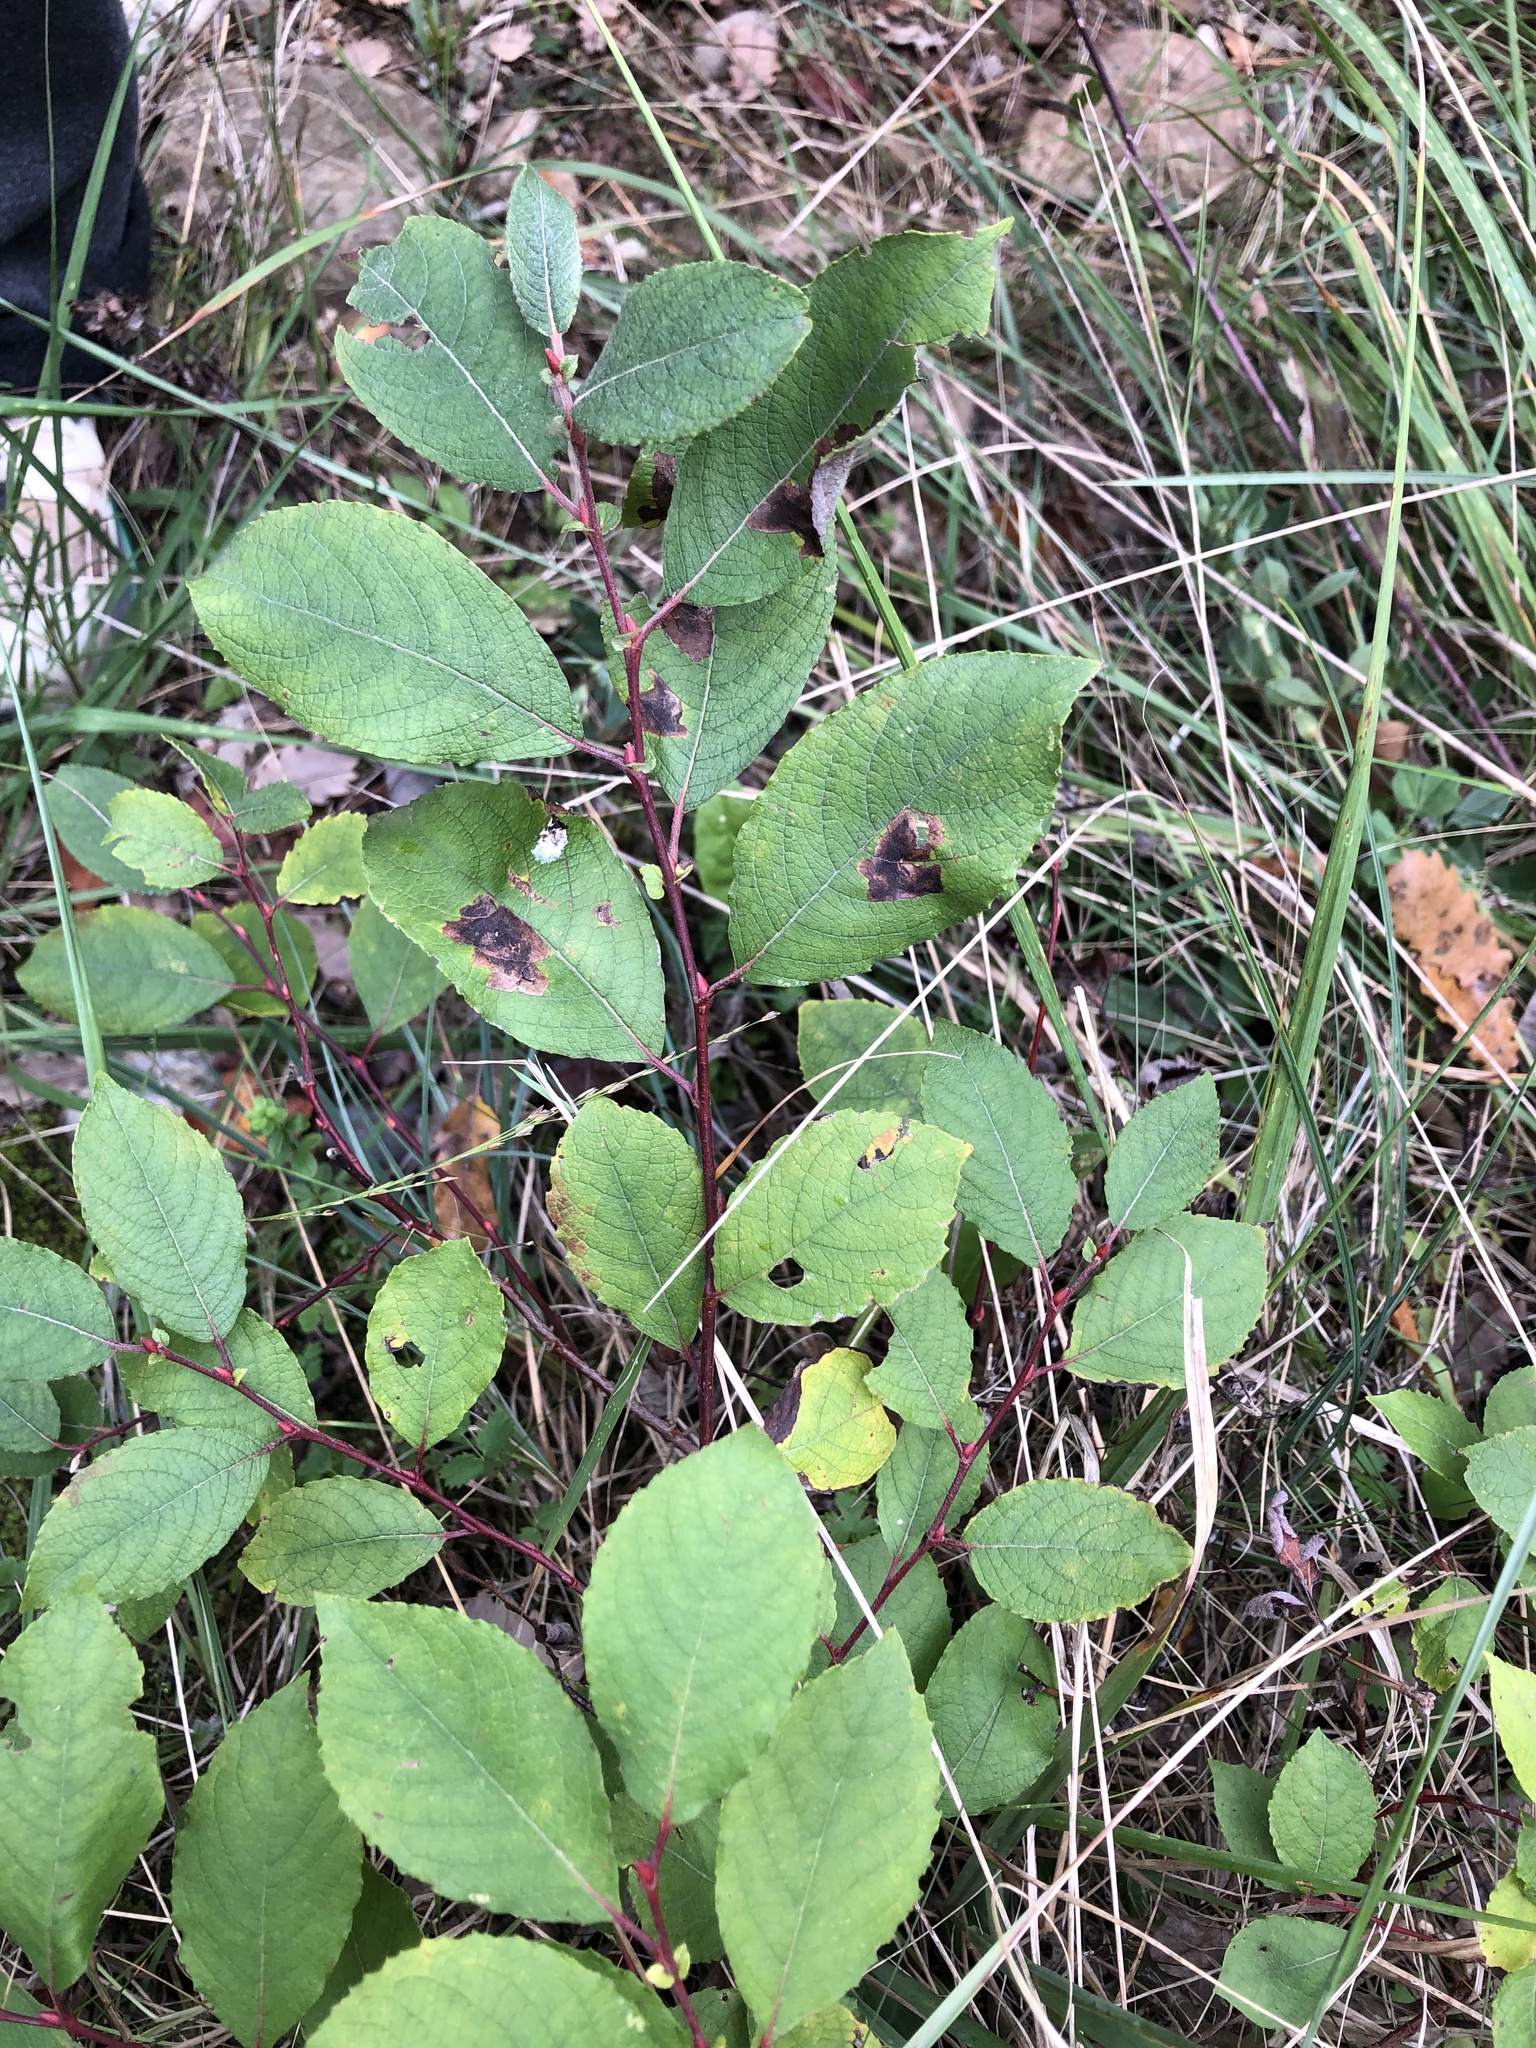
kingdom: Plantae
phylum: Tracheophyta
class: Magnoliopsida
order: Malpighiales
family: Salicaceae
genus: Salix
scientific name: Salix caprea
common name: Goat willow
